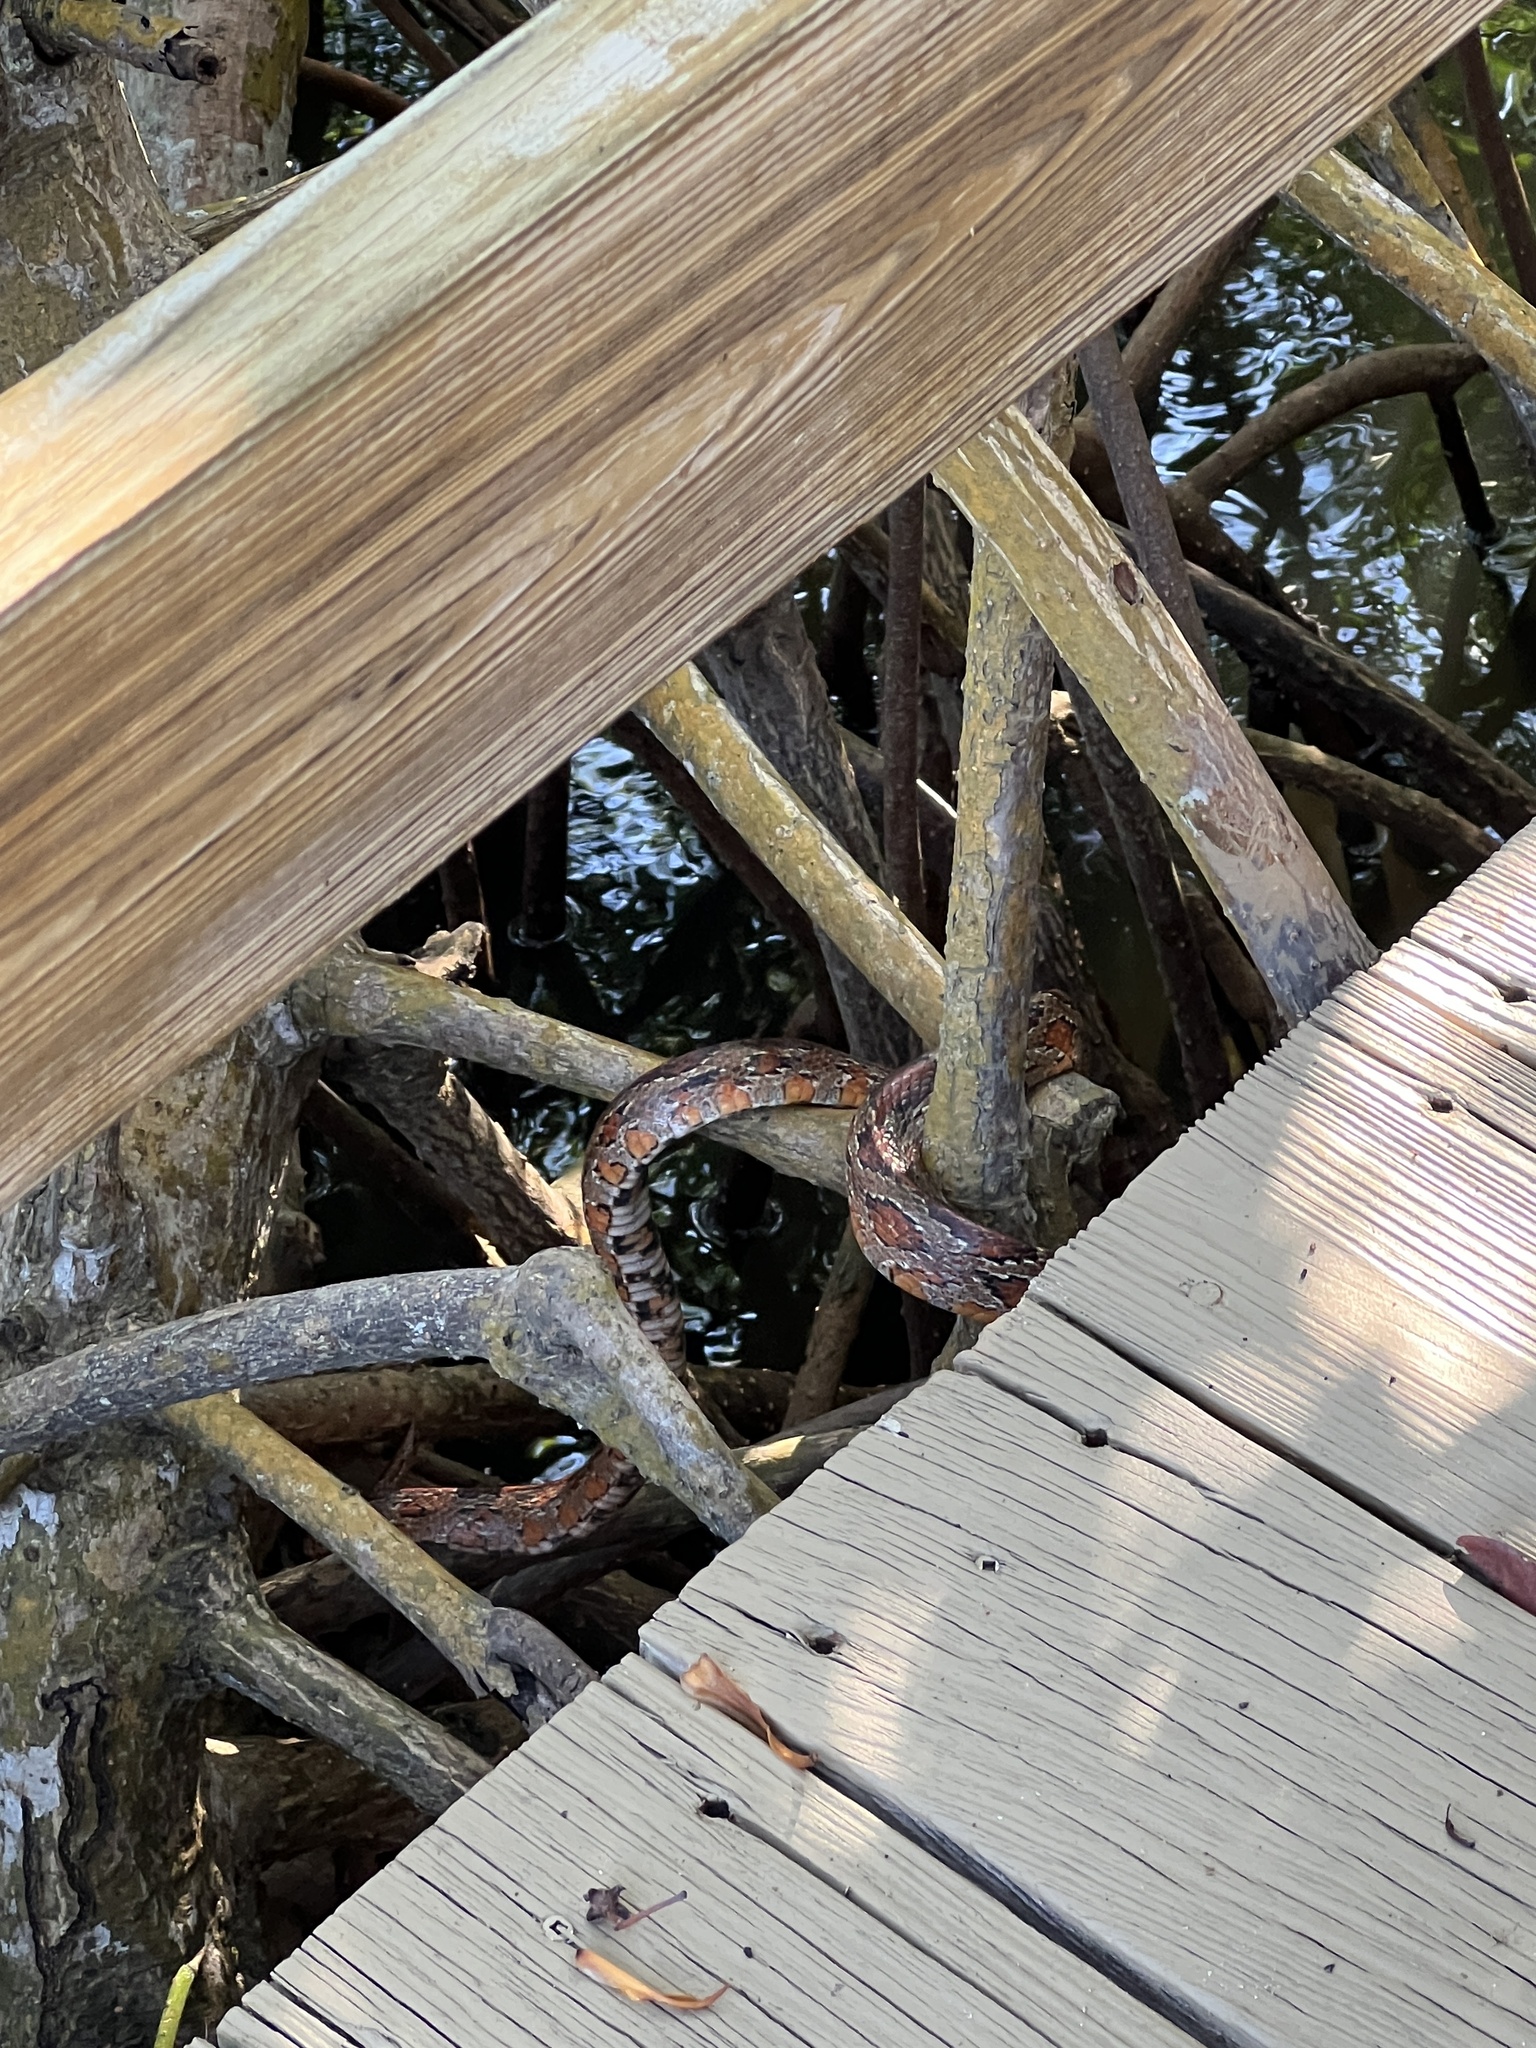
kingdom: Animalia
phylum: Chordata
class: Squamata
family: Colubridae
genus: Pantherophis
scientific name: Pantherophis guttatus
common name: Red cornsnake
